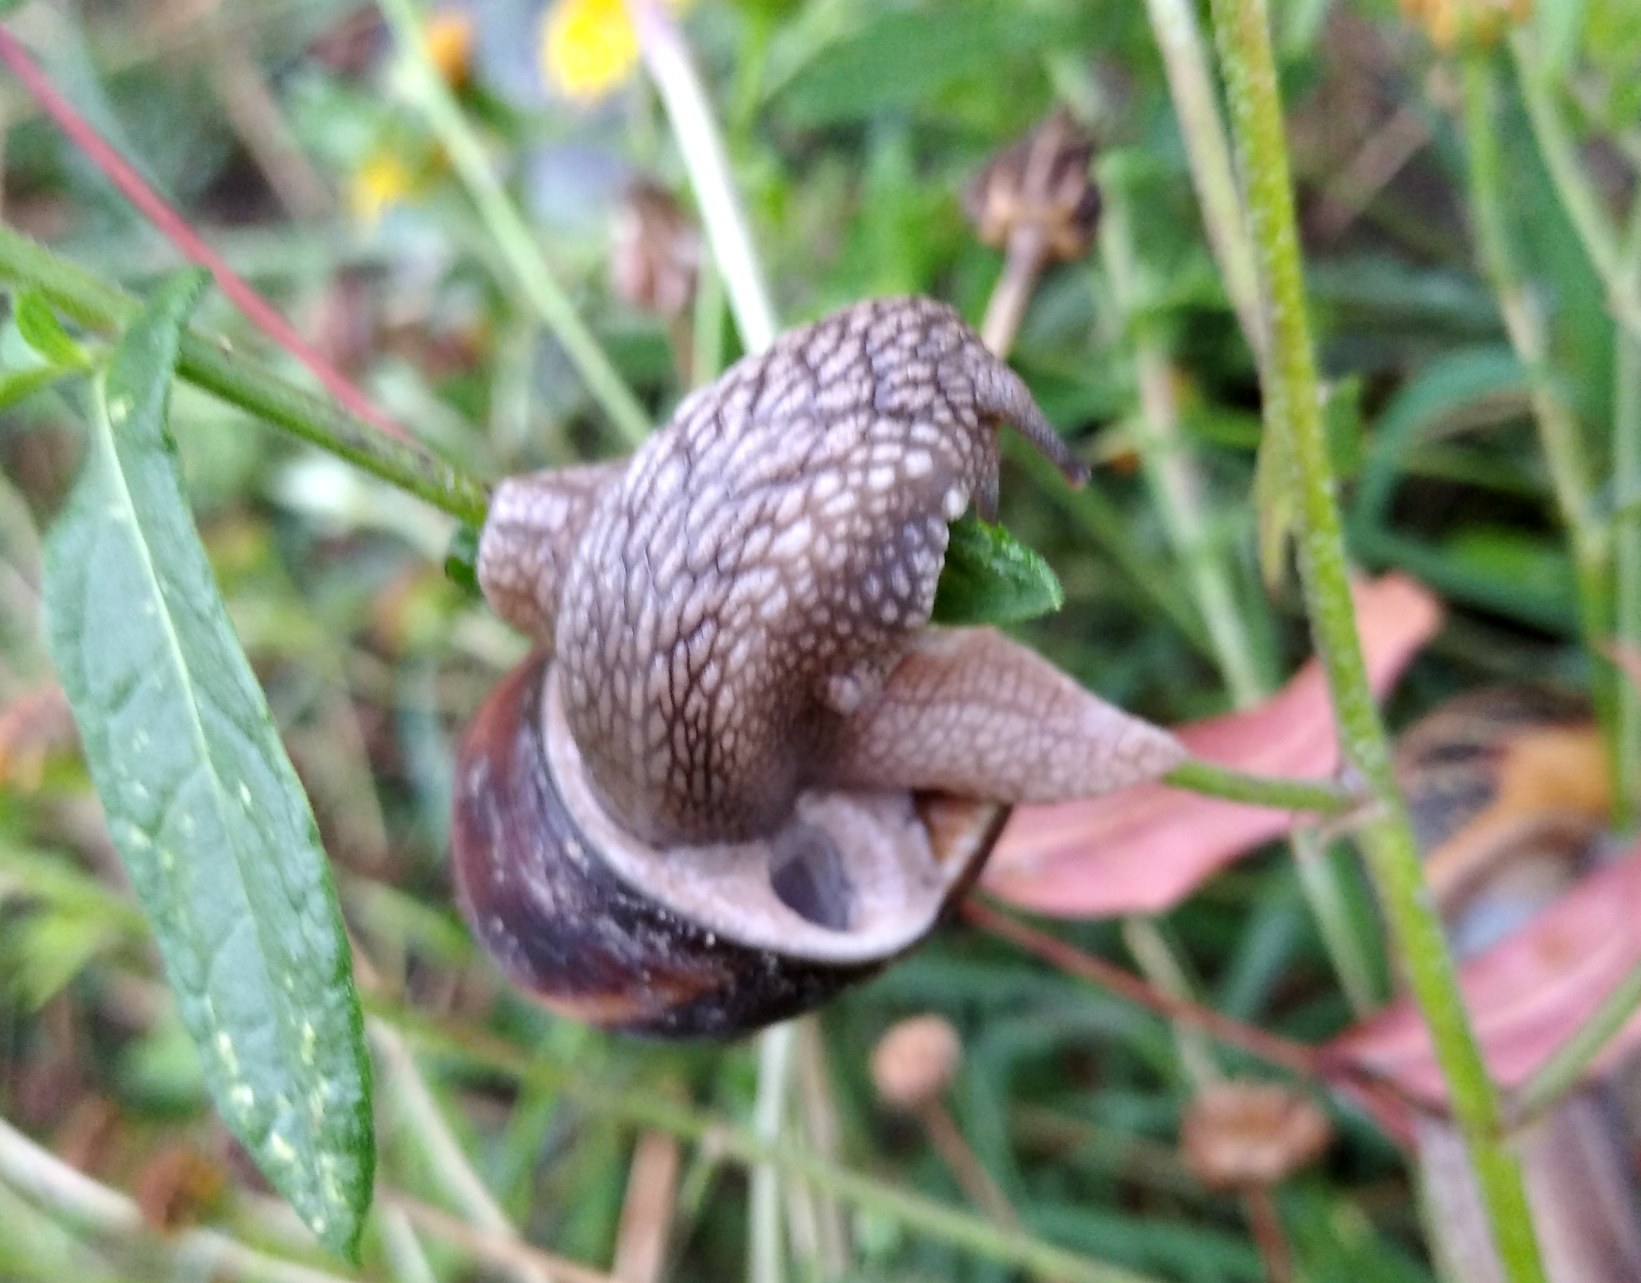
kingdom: Animalia
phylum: Mollusca
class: Gastropoda
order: Stylommatophora
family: Helicidae
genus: Helix
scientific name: Helix lucorum
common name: Turkish snail
